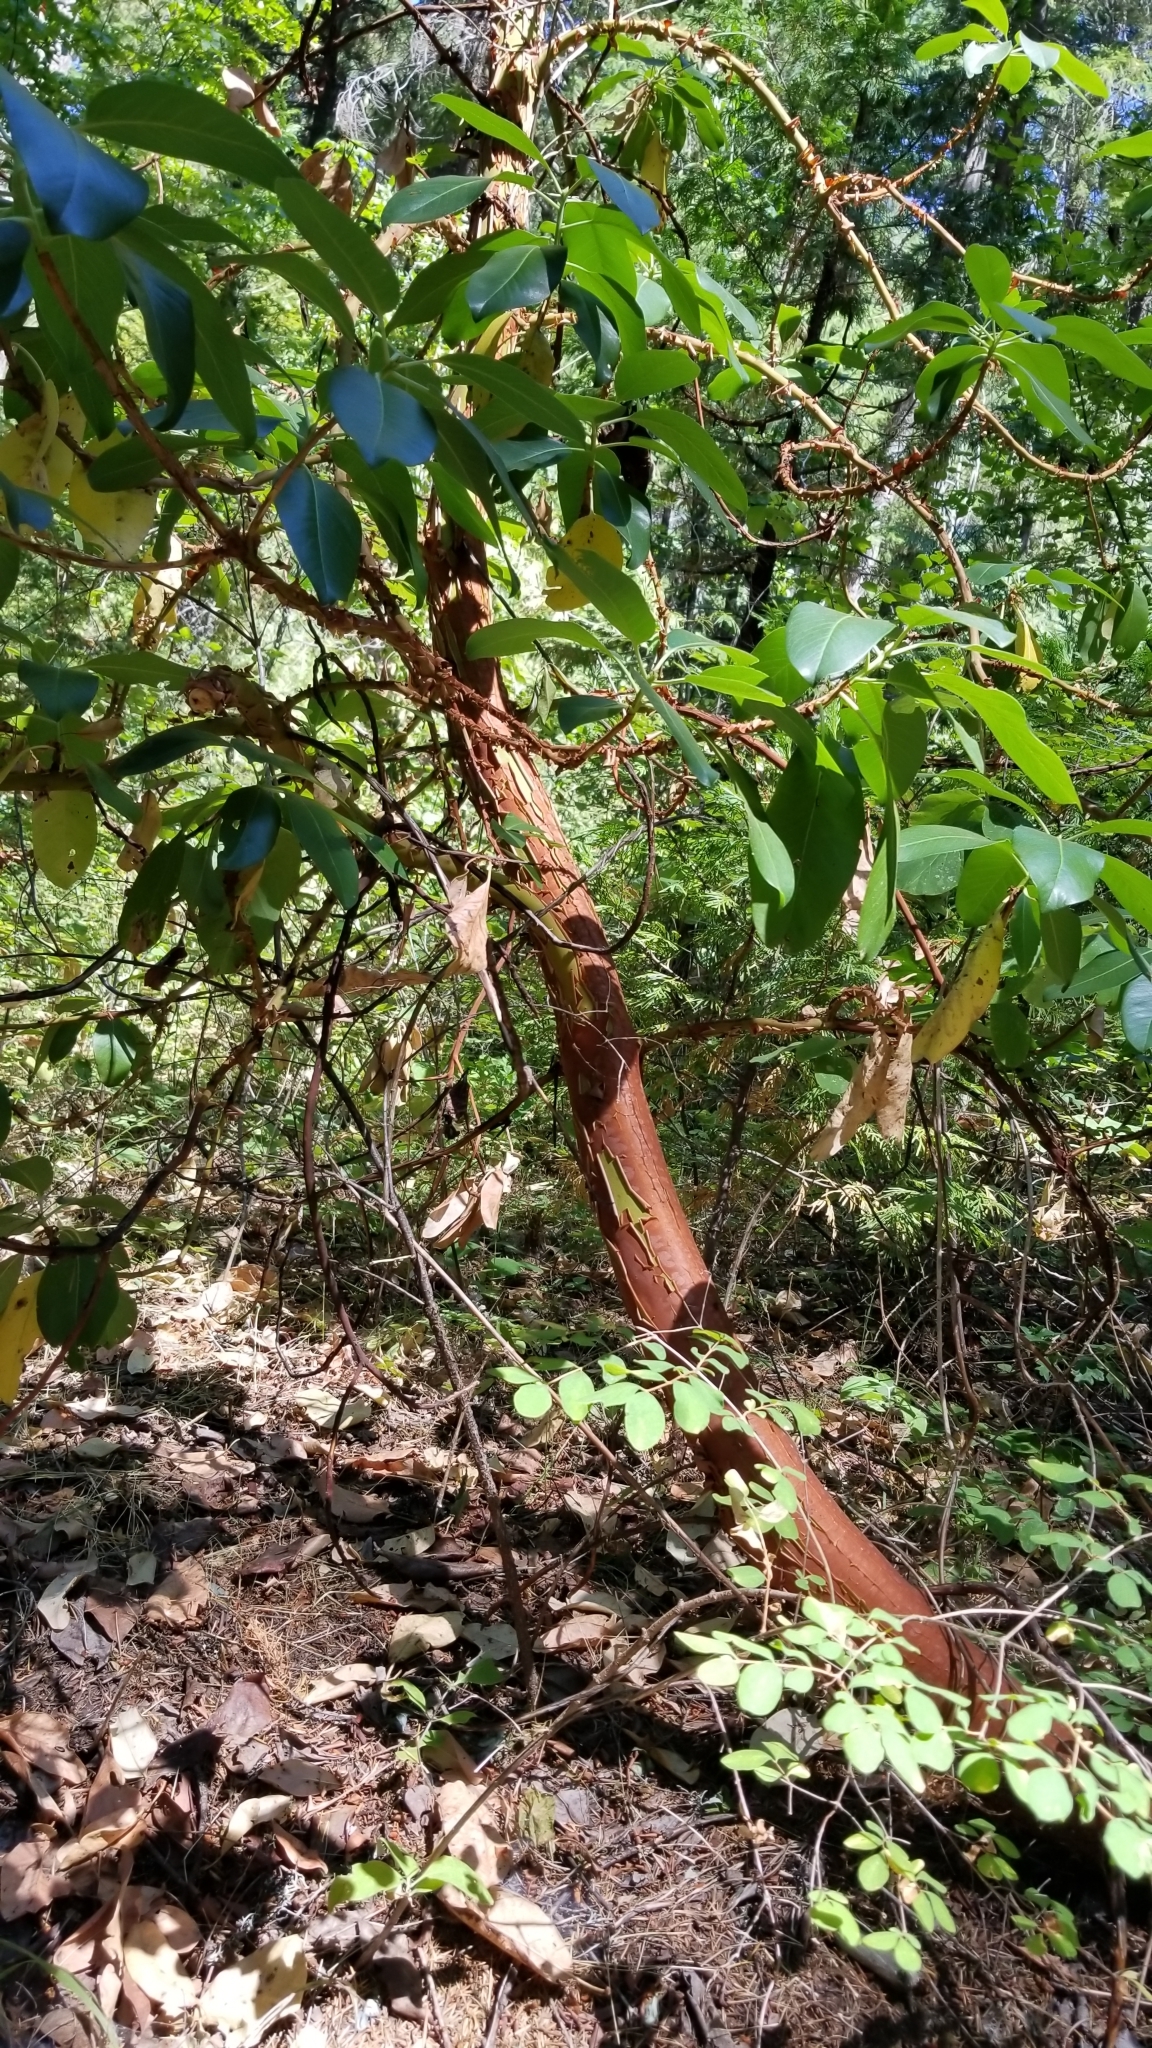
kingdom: Plantae
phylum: Tracheophyta
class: Magnoliopsida
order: Ericales
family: Ericaceae
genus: Arbutus
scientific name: Arbutus menziesii
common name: Pacific madrone
